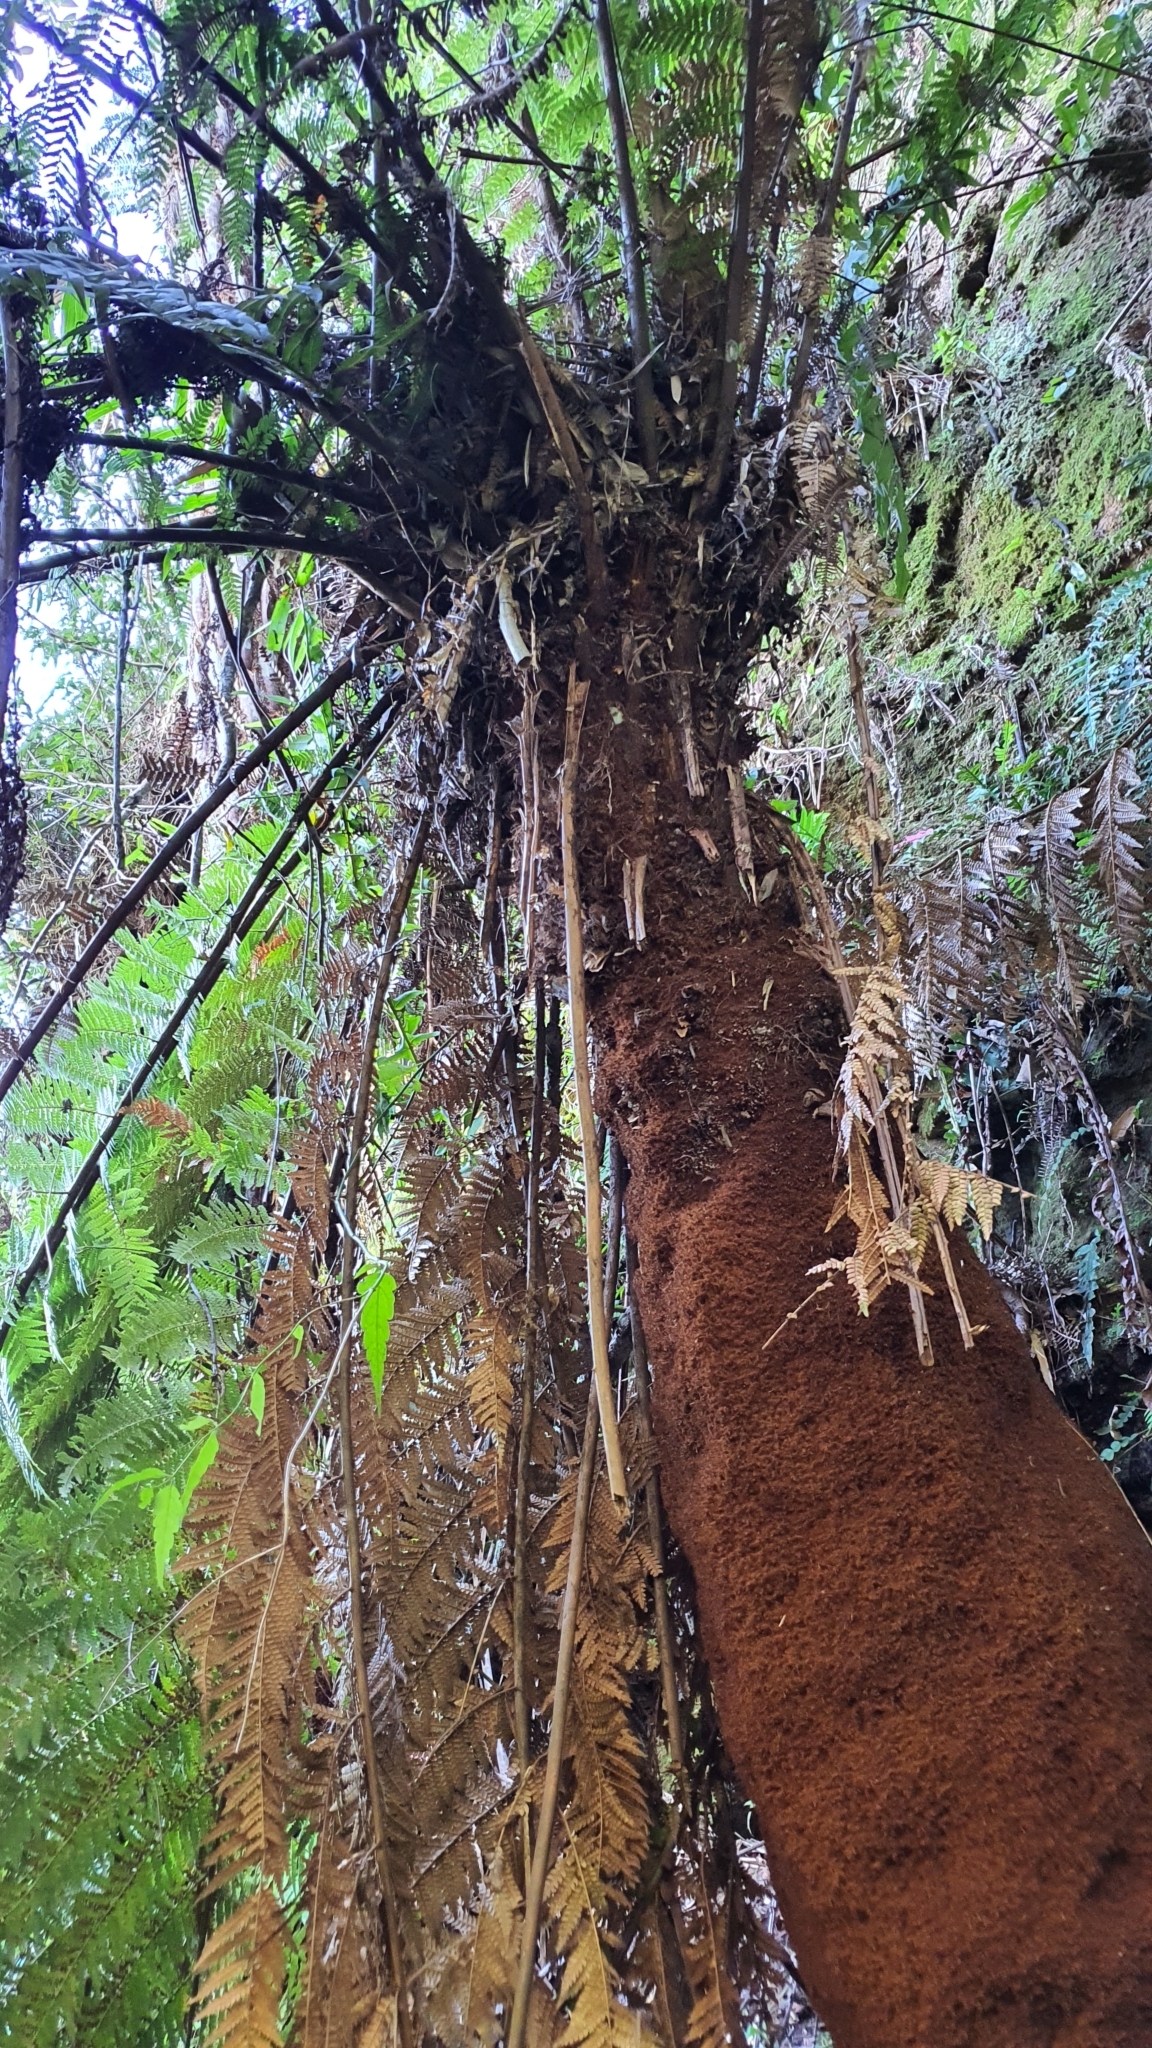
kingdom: Plantae
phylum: Tracheophyta
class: Polypodiopsida
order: Cyatheales
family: Dicksoniaceae
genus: Dicksonia
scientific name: Dicksonia sellowiana
